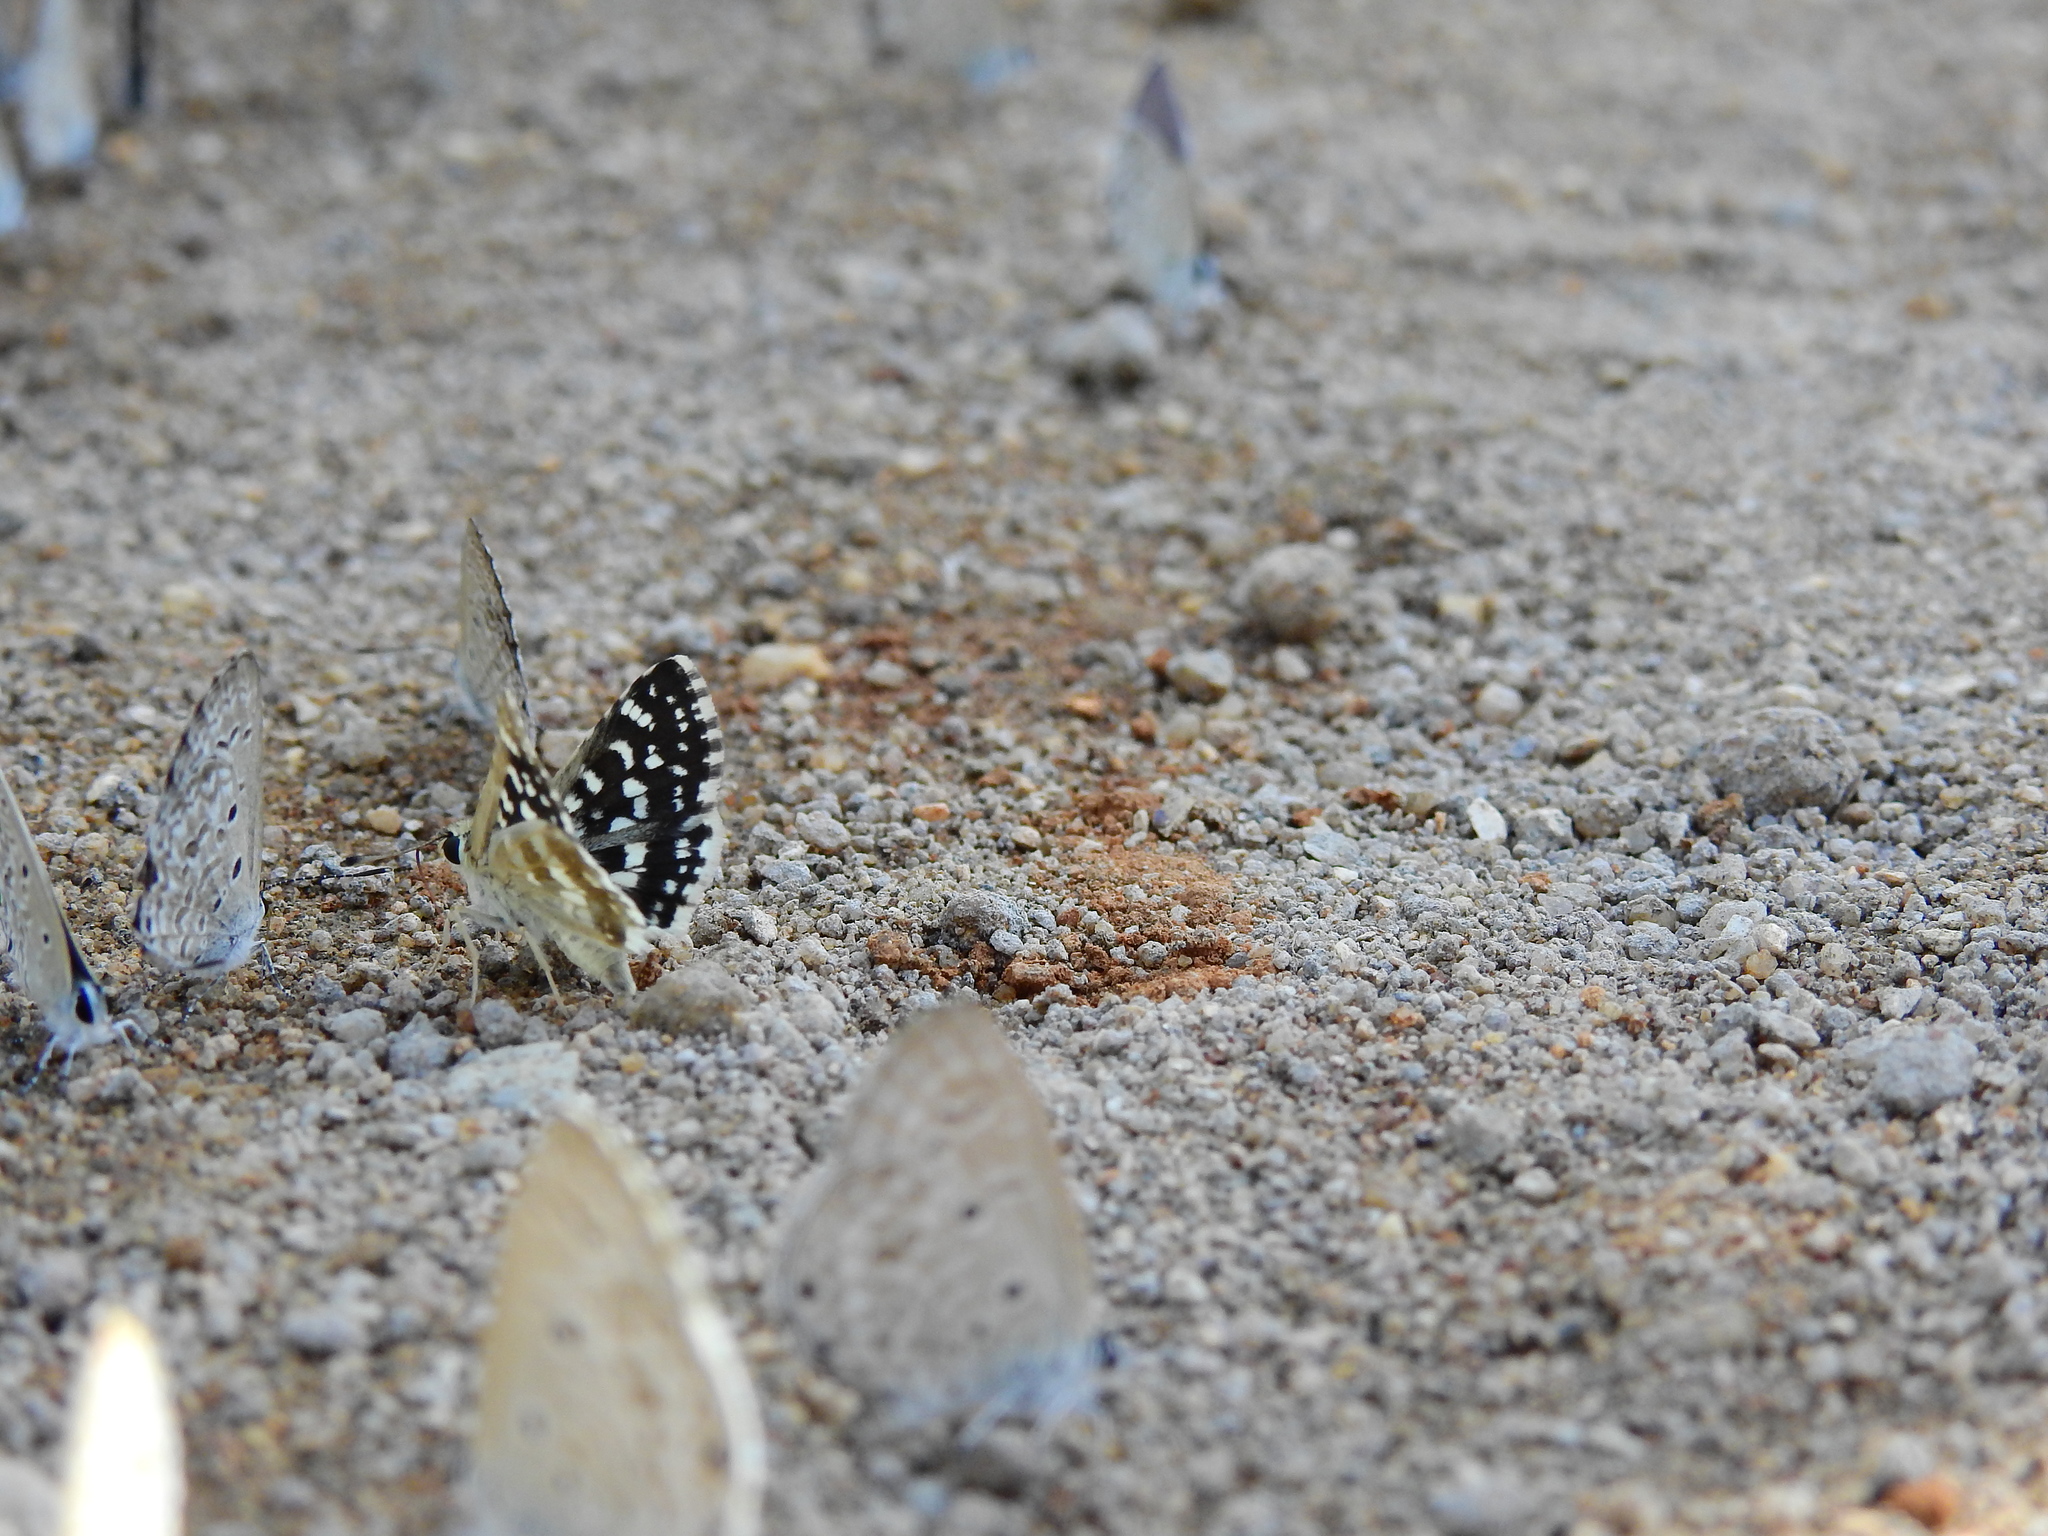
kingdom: Animalia
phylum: Arthropoda
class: Insecta
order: Lepidoptera
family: Hesperiidae
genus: Spialia
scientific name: Spialia galba
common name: Indian skipper
